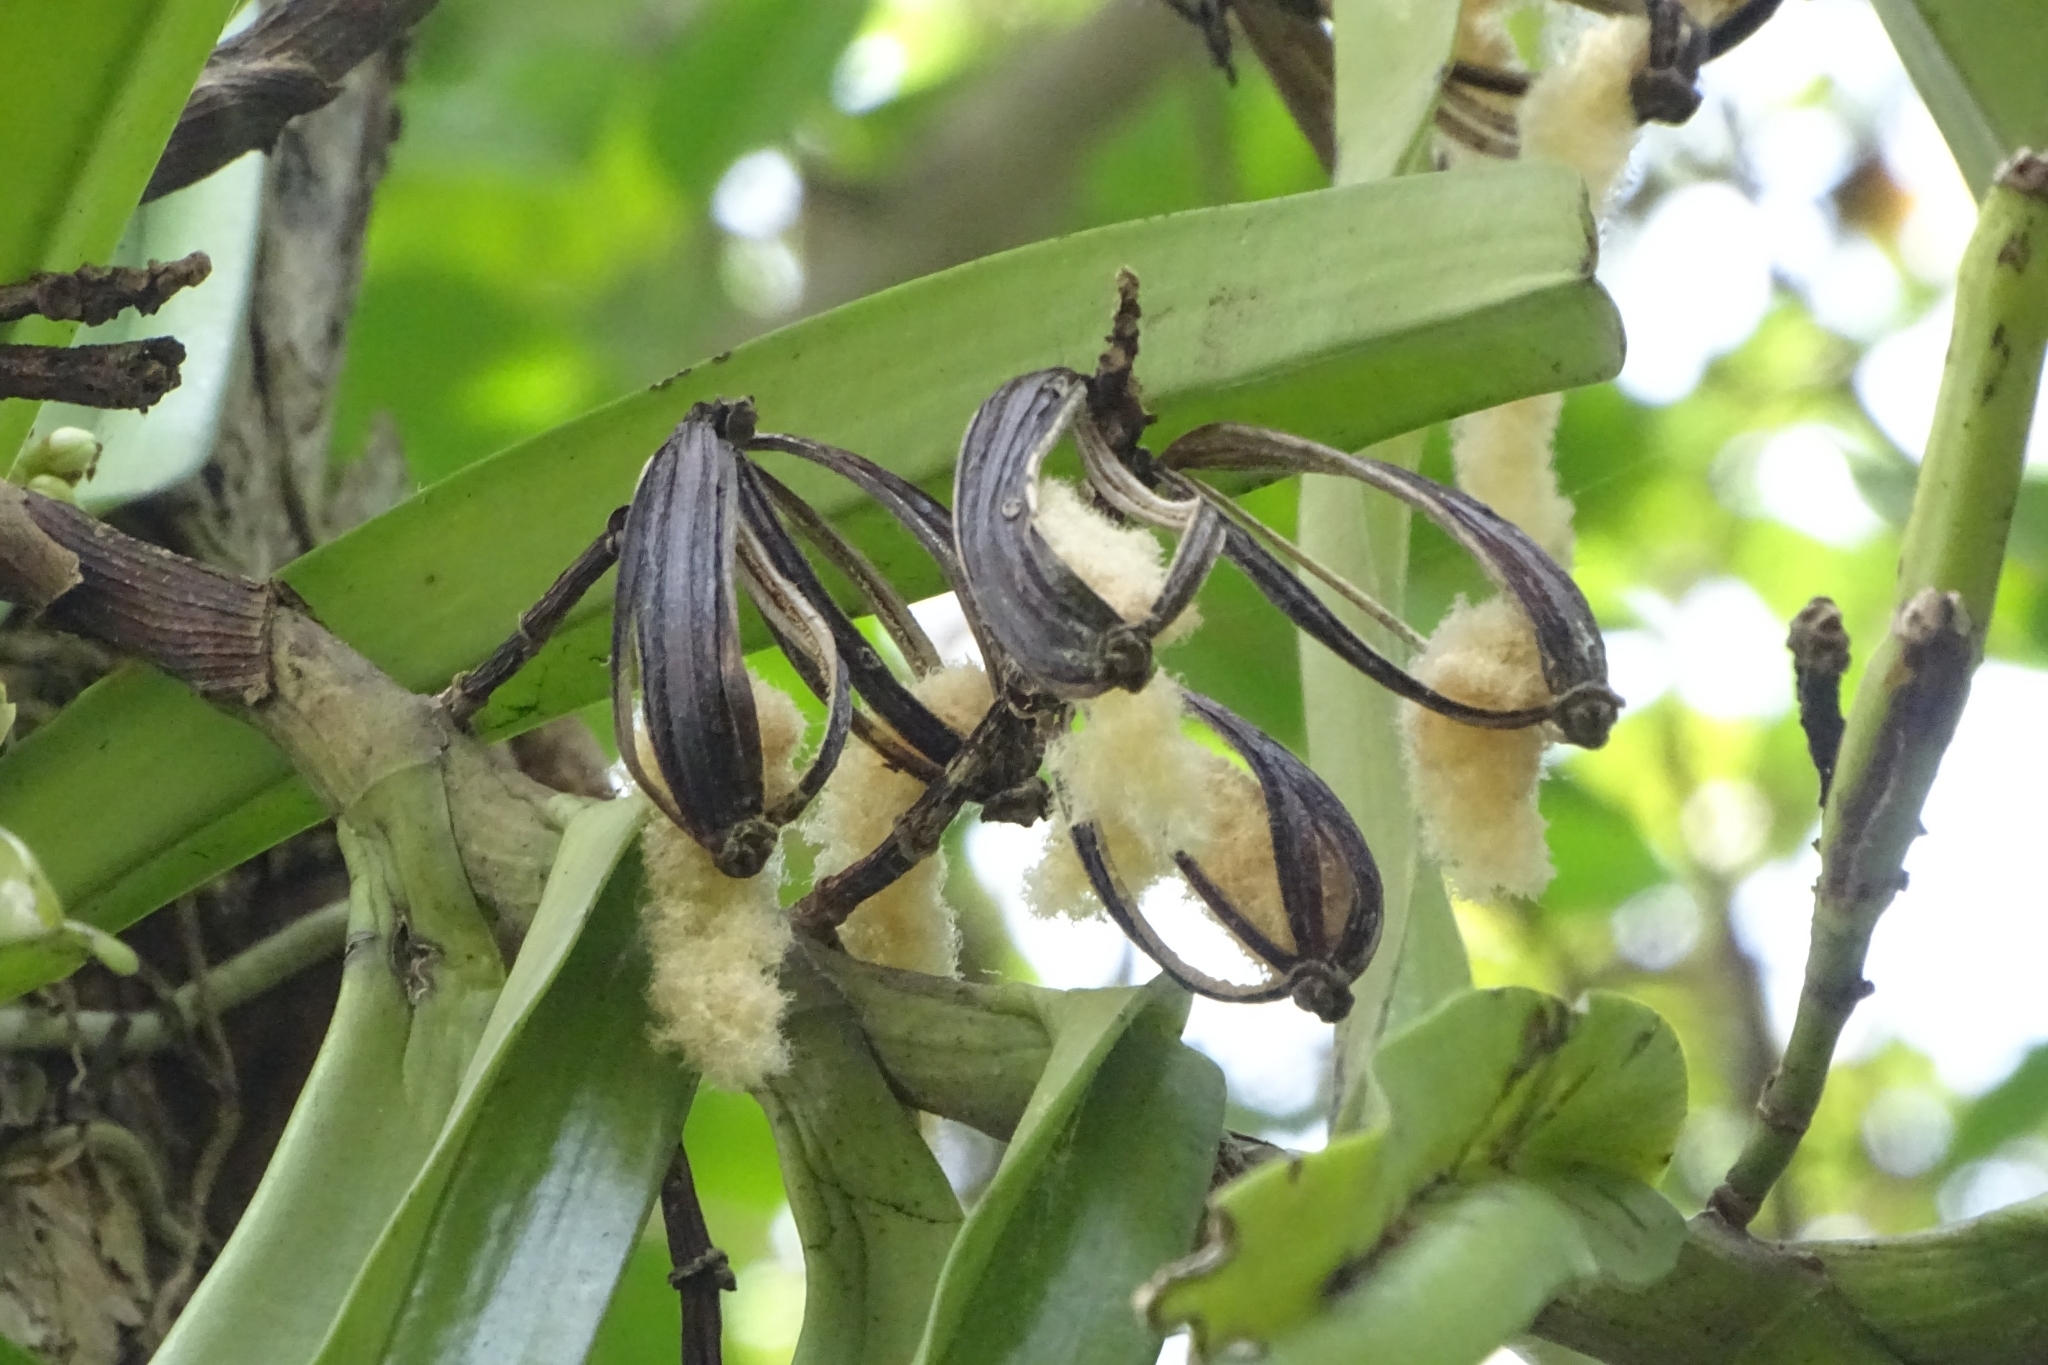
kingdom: Plantae
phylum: Tracheophyta
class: Liliopsida
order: Asparagales
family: Orchidaceae
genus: Acampe
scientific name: Acampe praemorsa
